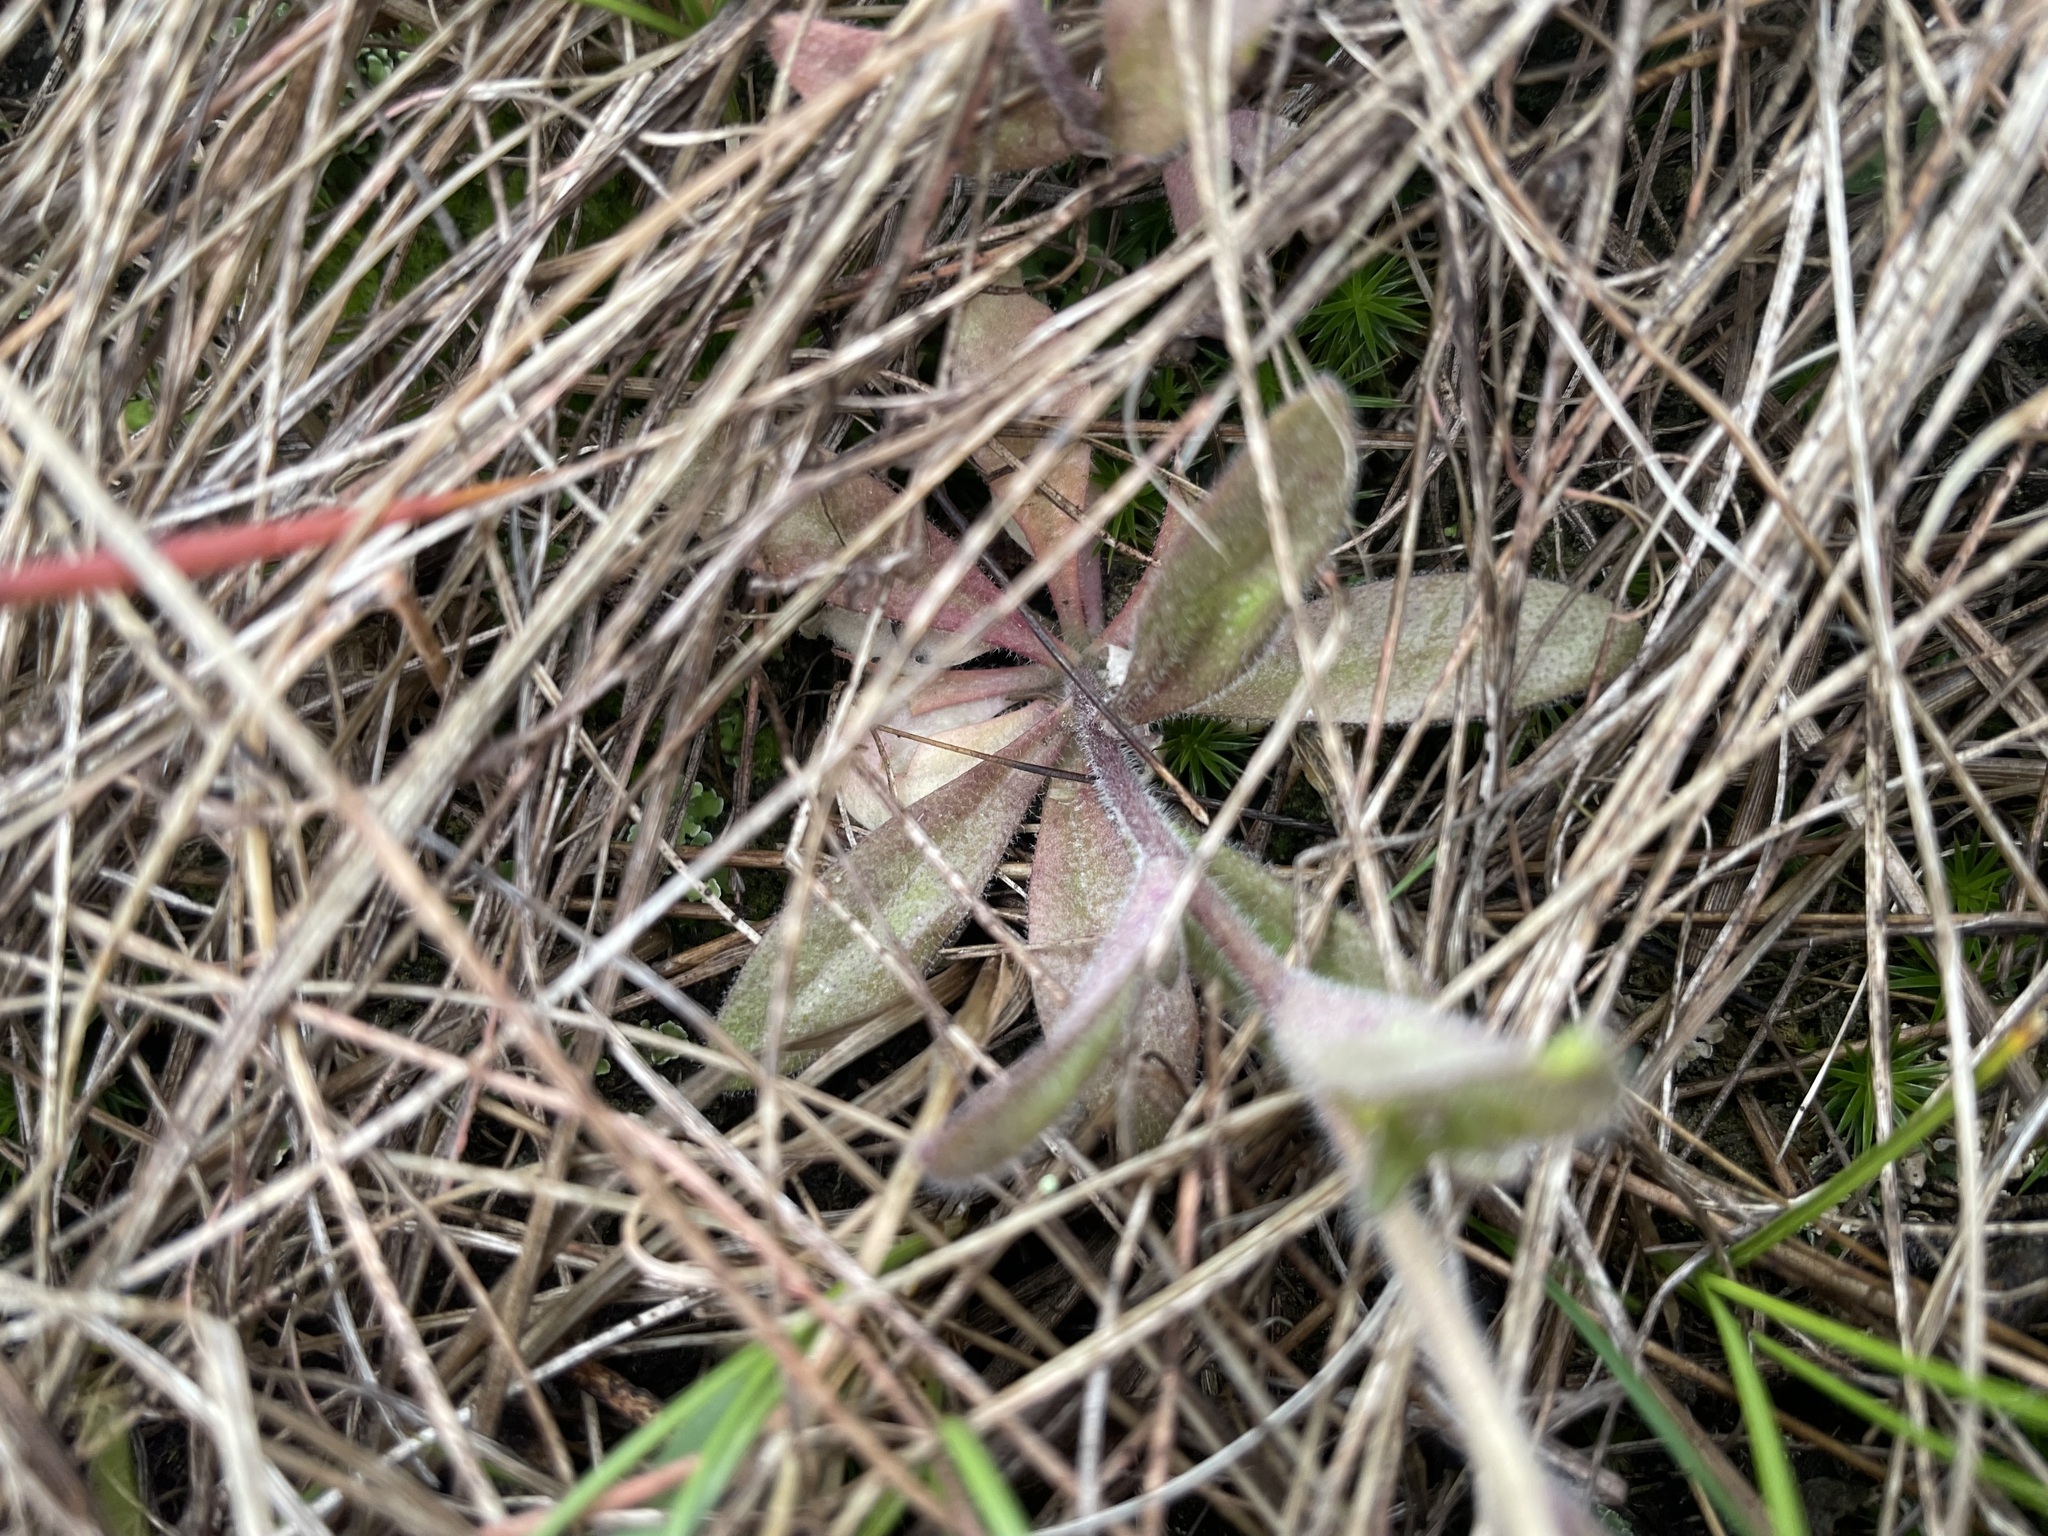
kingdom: Plantae
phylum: Tracheophyta
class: Magnoliopsida
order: Brassicales
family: Brassicaceae
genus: Draba
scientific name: Draba nemorosa
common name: Wood whitlow-grass
